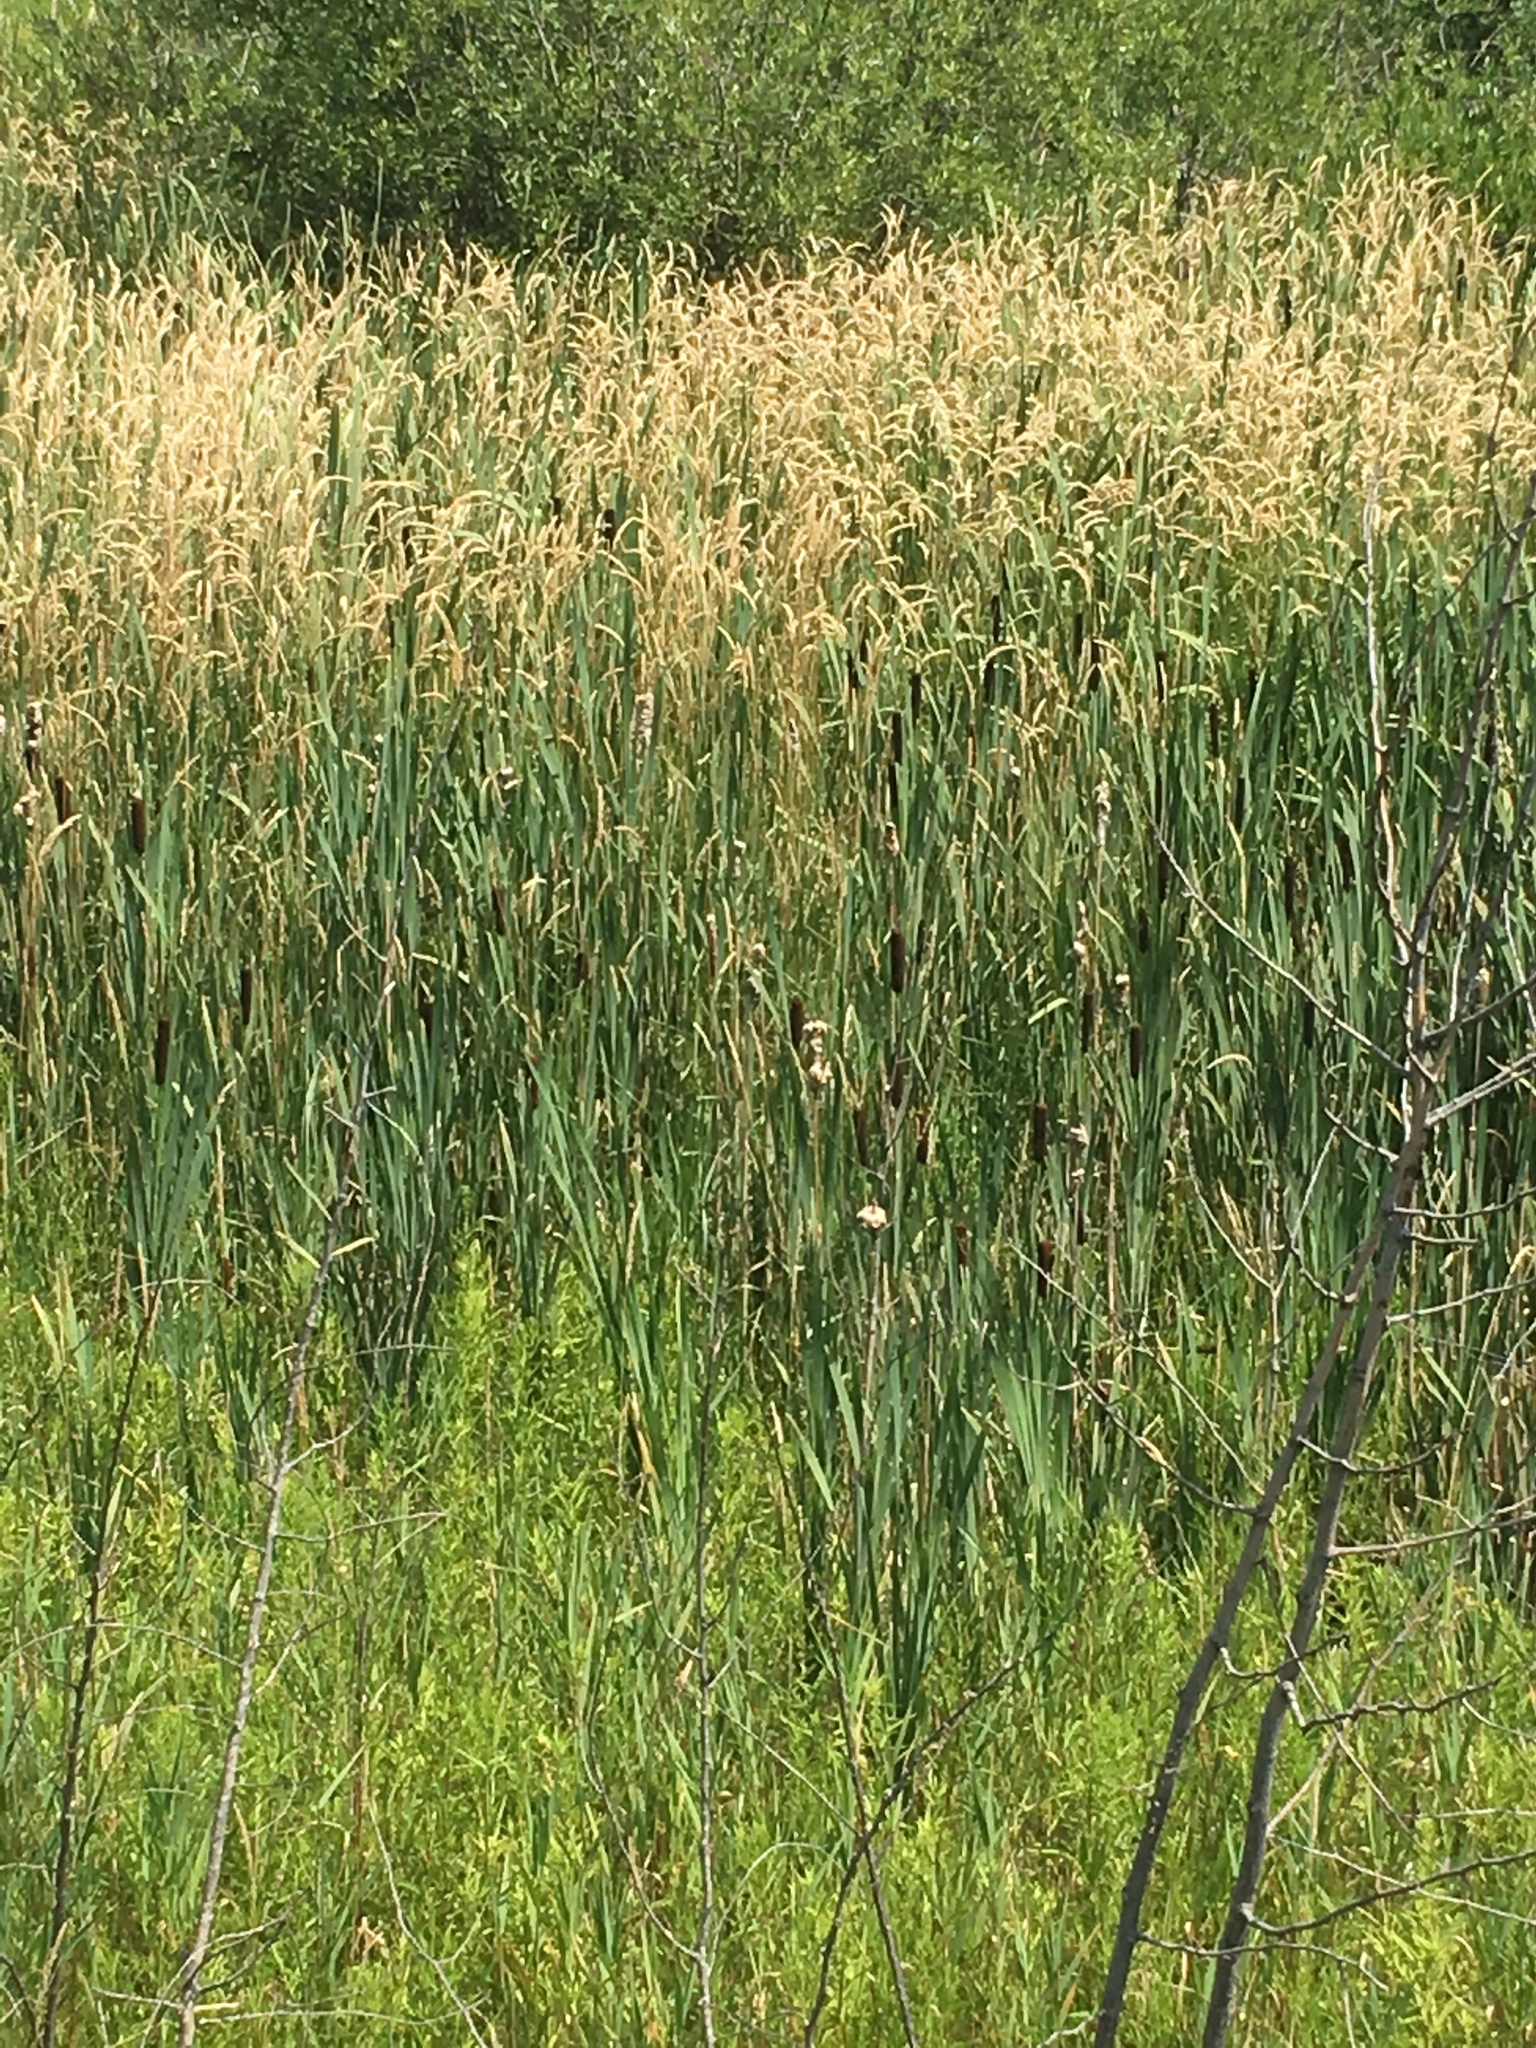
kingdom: Plantae
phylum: Tracheophyta
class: Liliopsida
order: Poales
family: Typhaceae
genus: Typha
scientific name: Typha latifolia
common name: Broadleaf cattail
